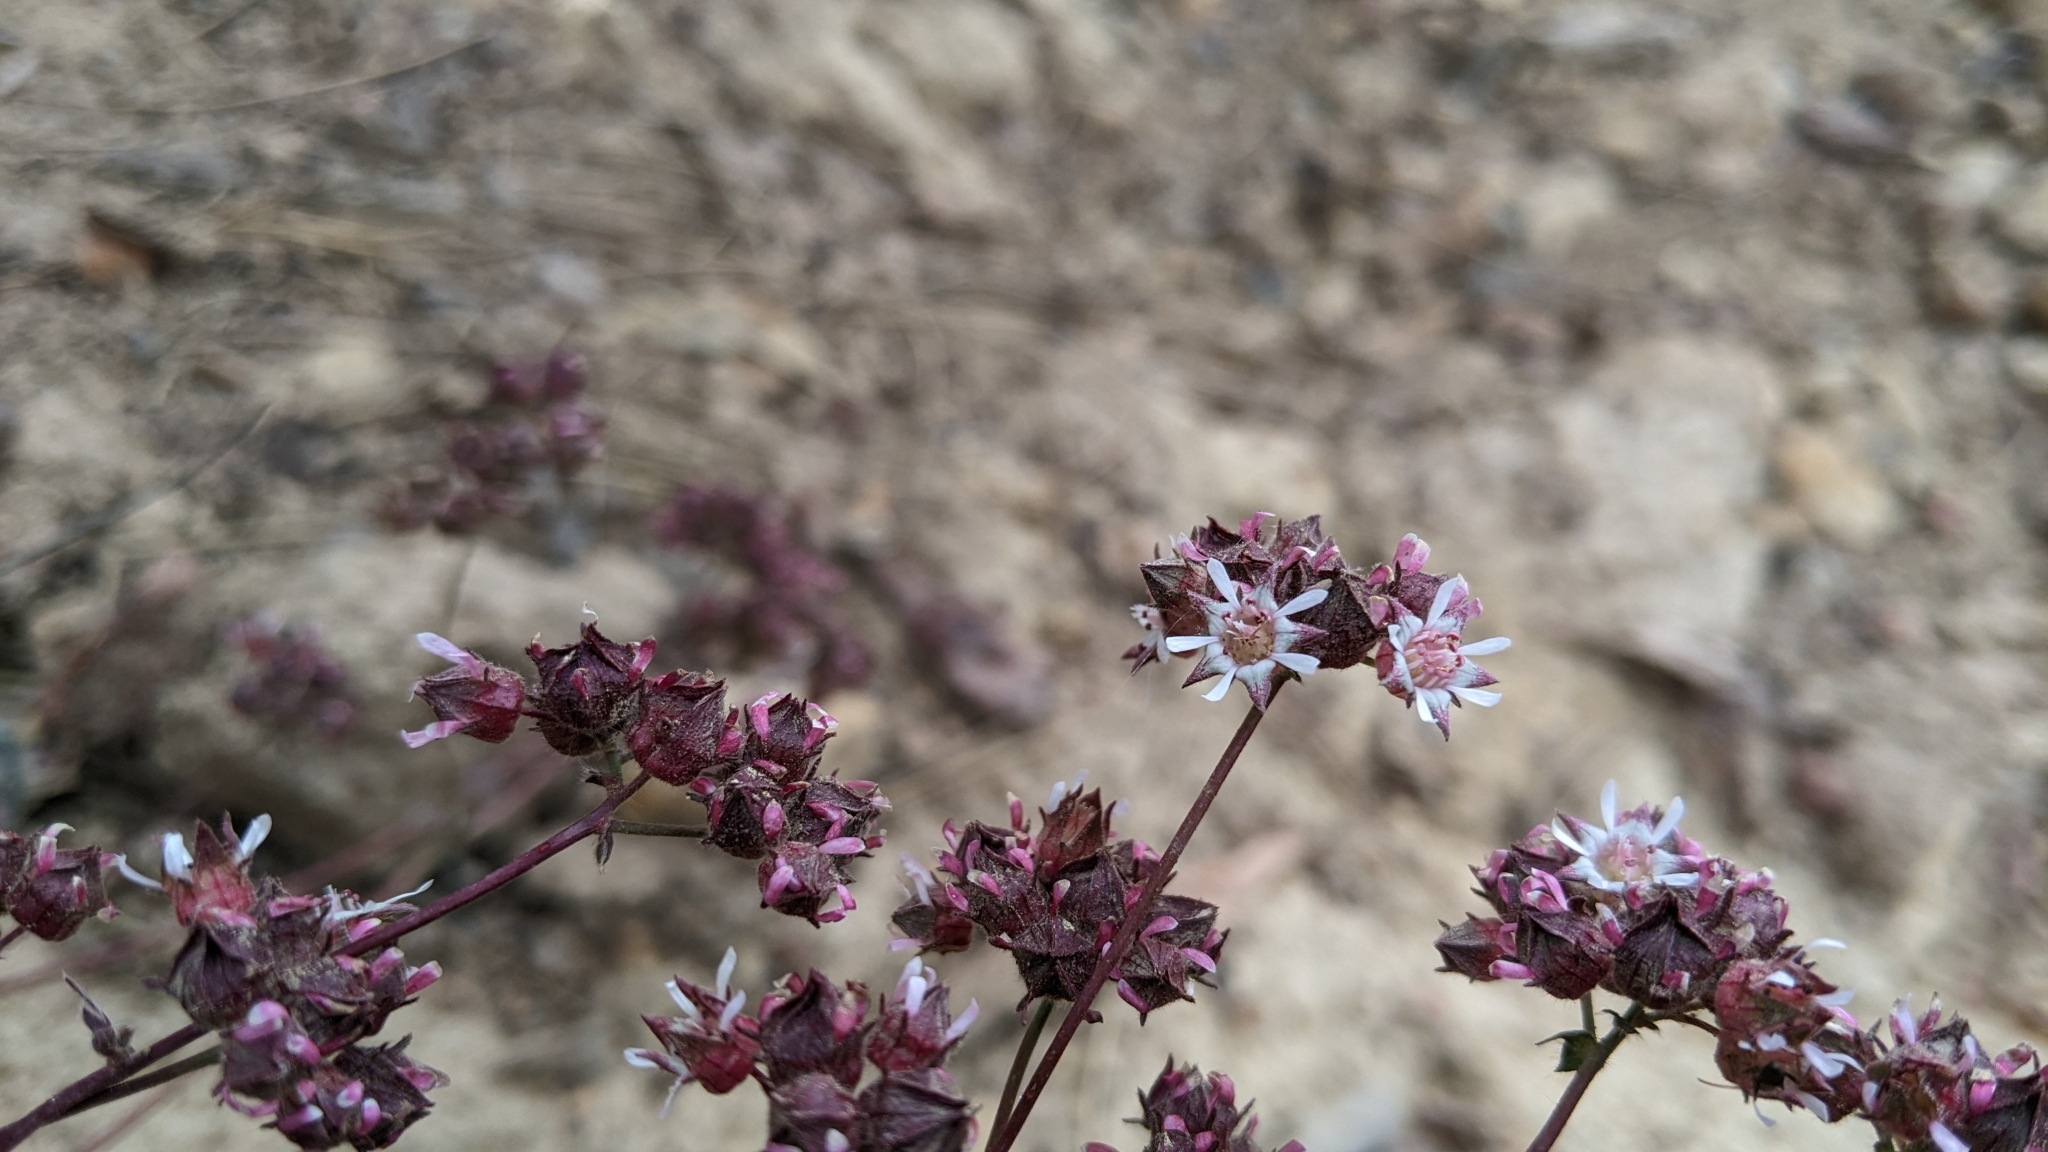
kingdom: Plantae
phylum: Tracheophyta
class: Magnoliopsida
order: Rosales
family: Rosaceae
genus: Potentilla
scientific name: Potentilla tilingii
